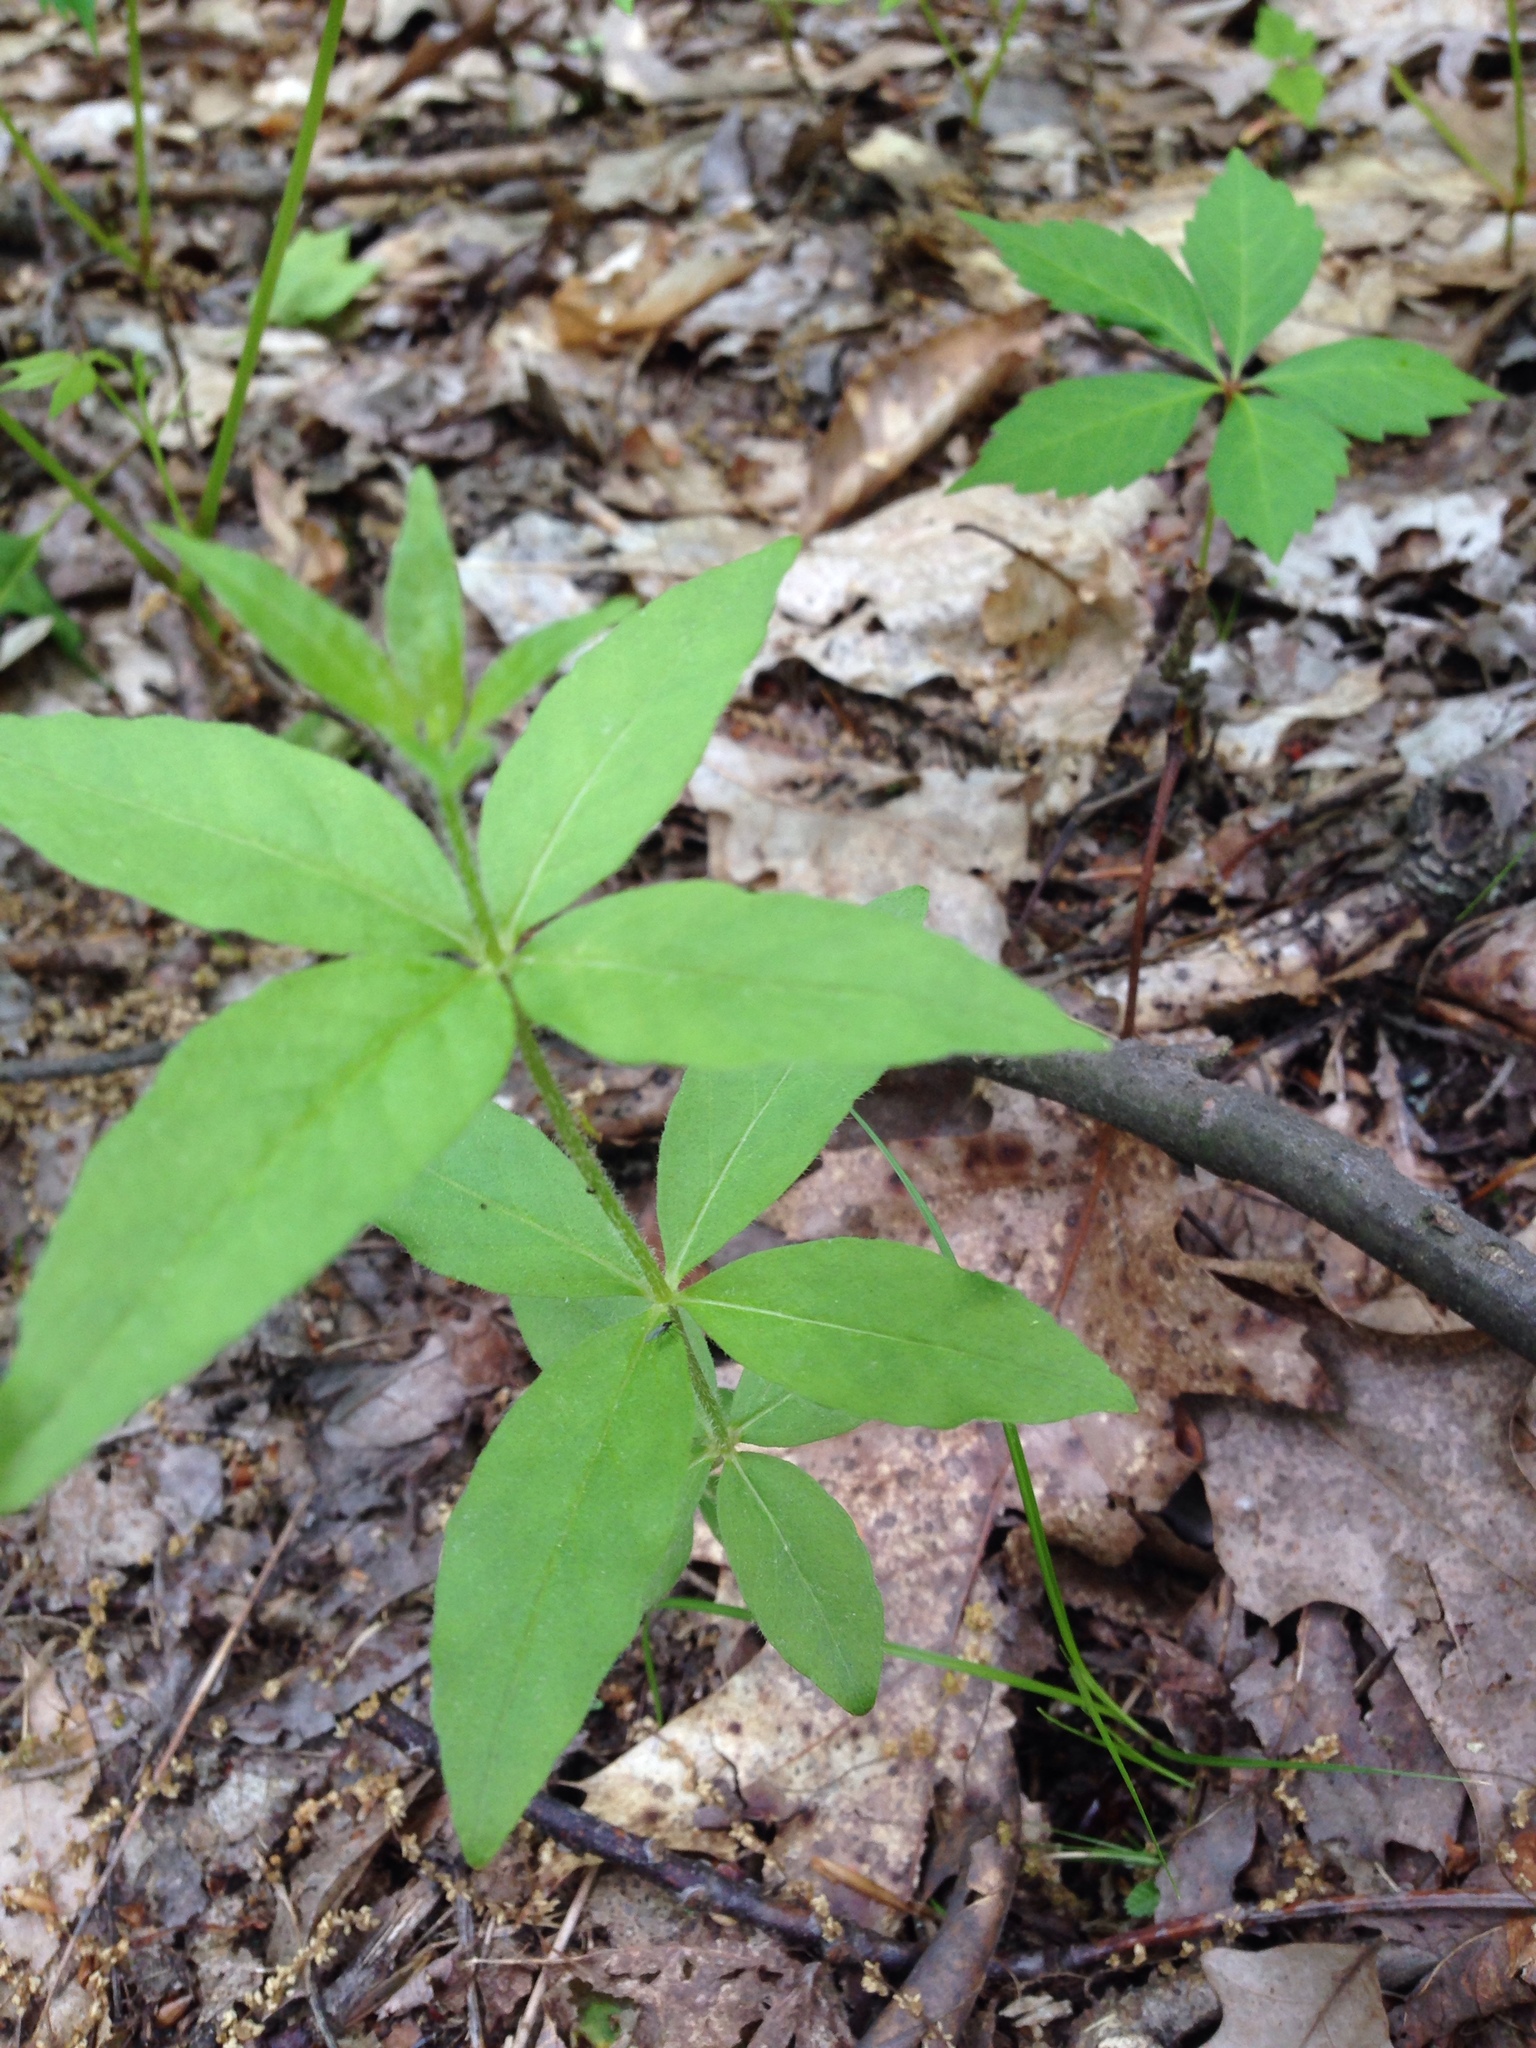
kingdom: Plantae
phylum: Tracheophyta
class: Magnoliopsida
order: Ericales
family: Primulaceae
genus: Lysimachia
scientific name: Lysimachia quadrifolia
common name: Whorled loosestrife
